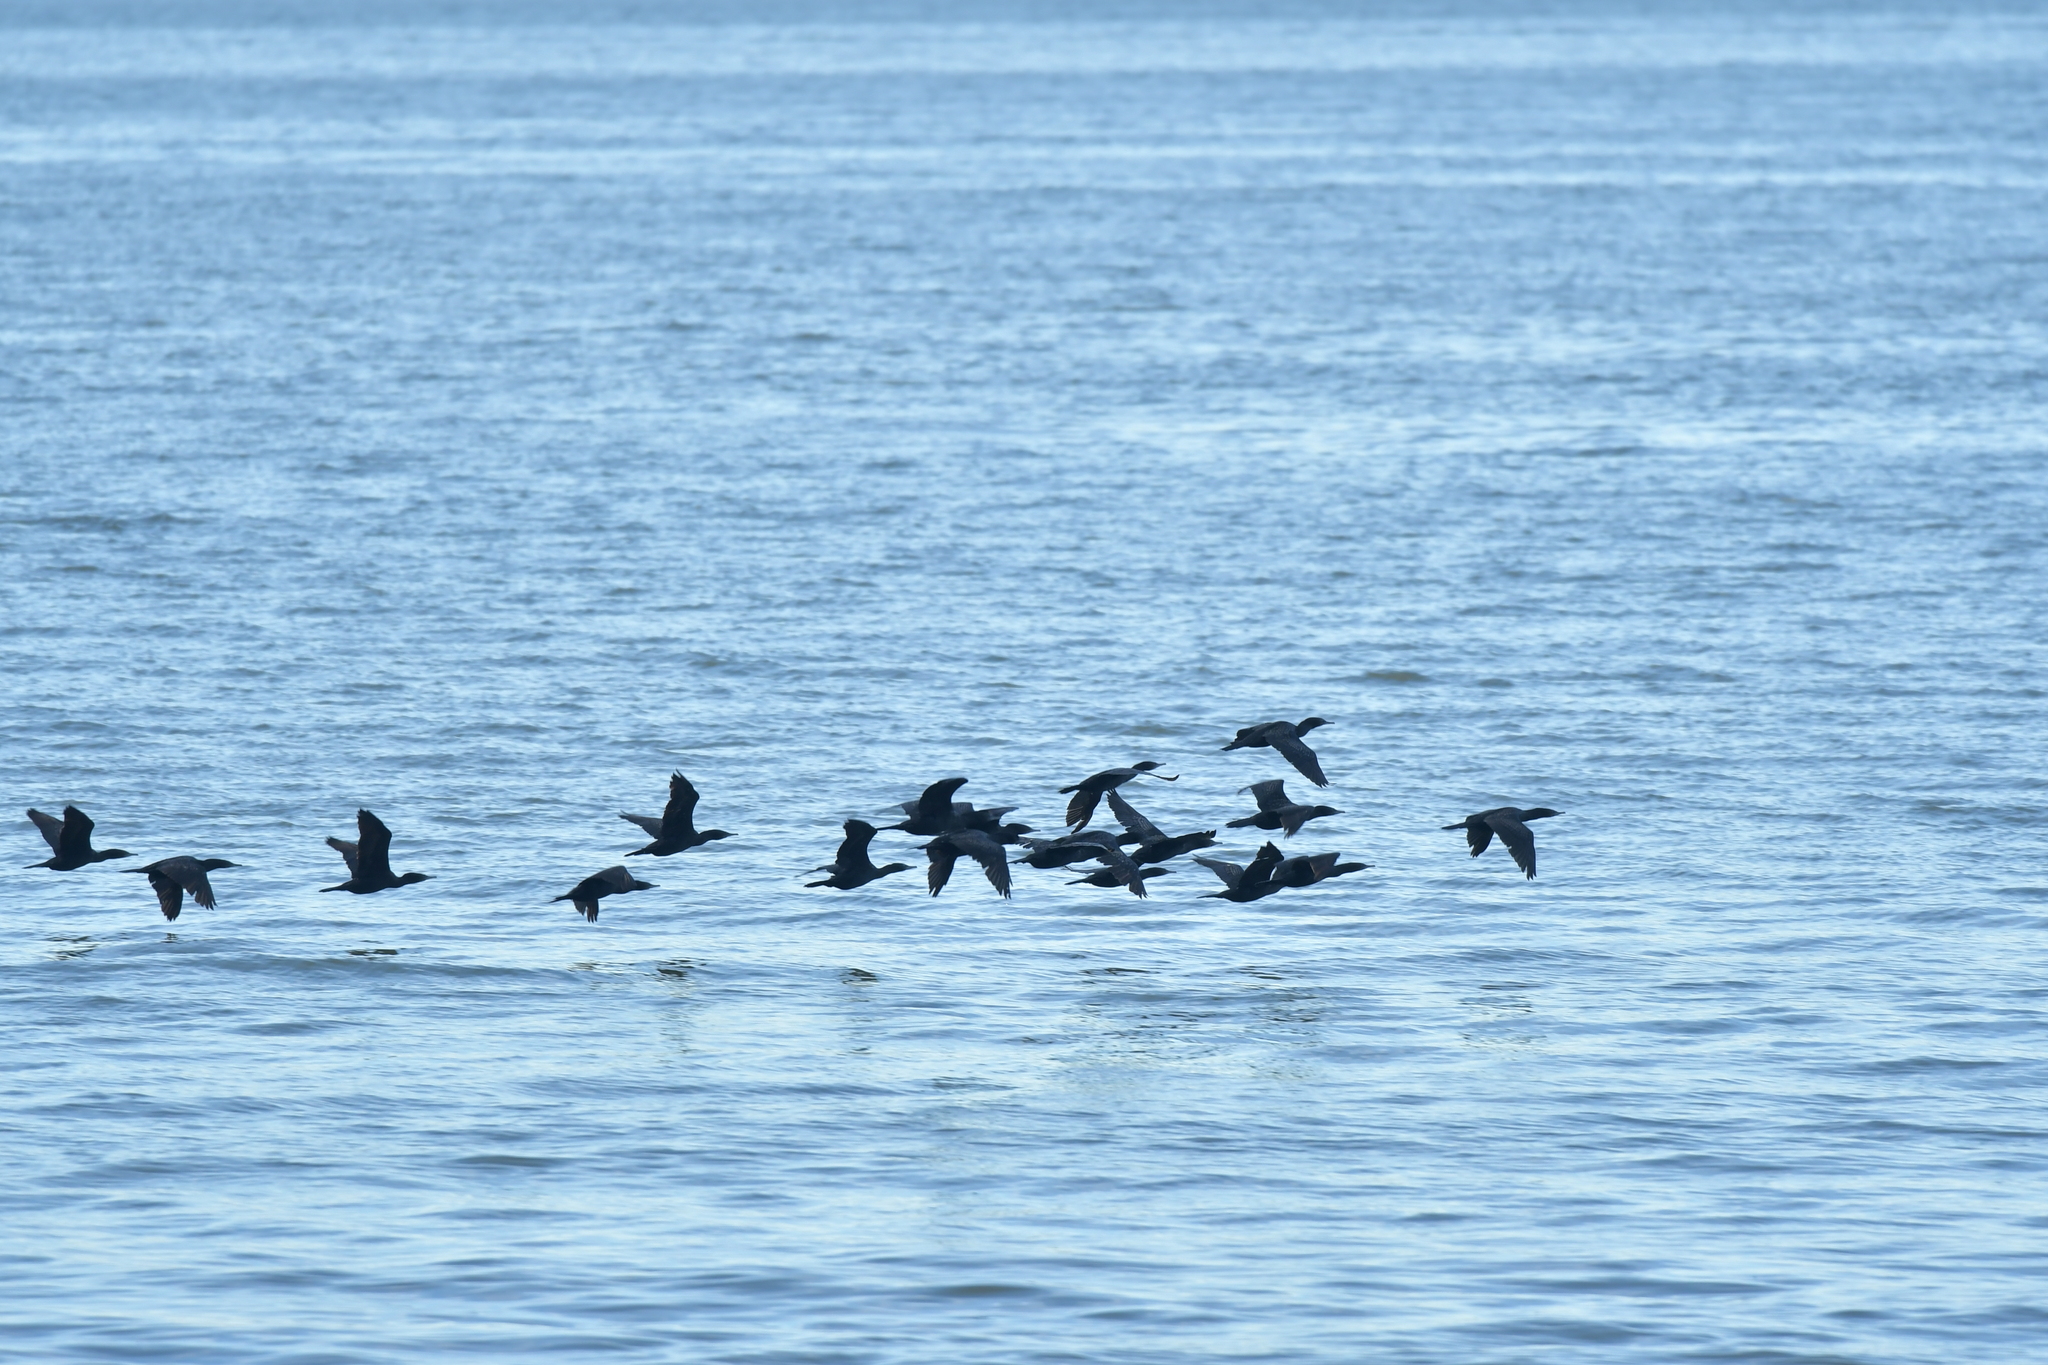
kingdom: Animalia
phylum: Chordata
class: Aves
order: Suliformes
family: Phalacrocoracidae
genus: Phalacrocorax
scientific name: Phalacrocorax sulcirostris
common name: Little black cormorant
